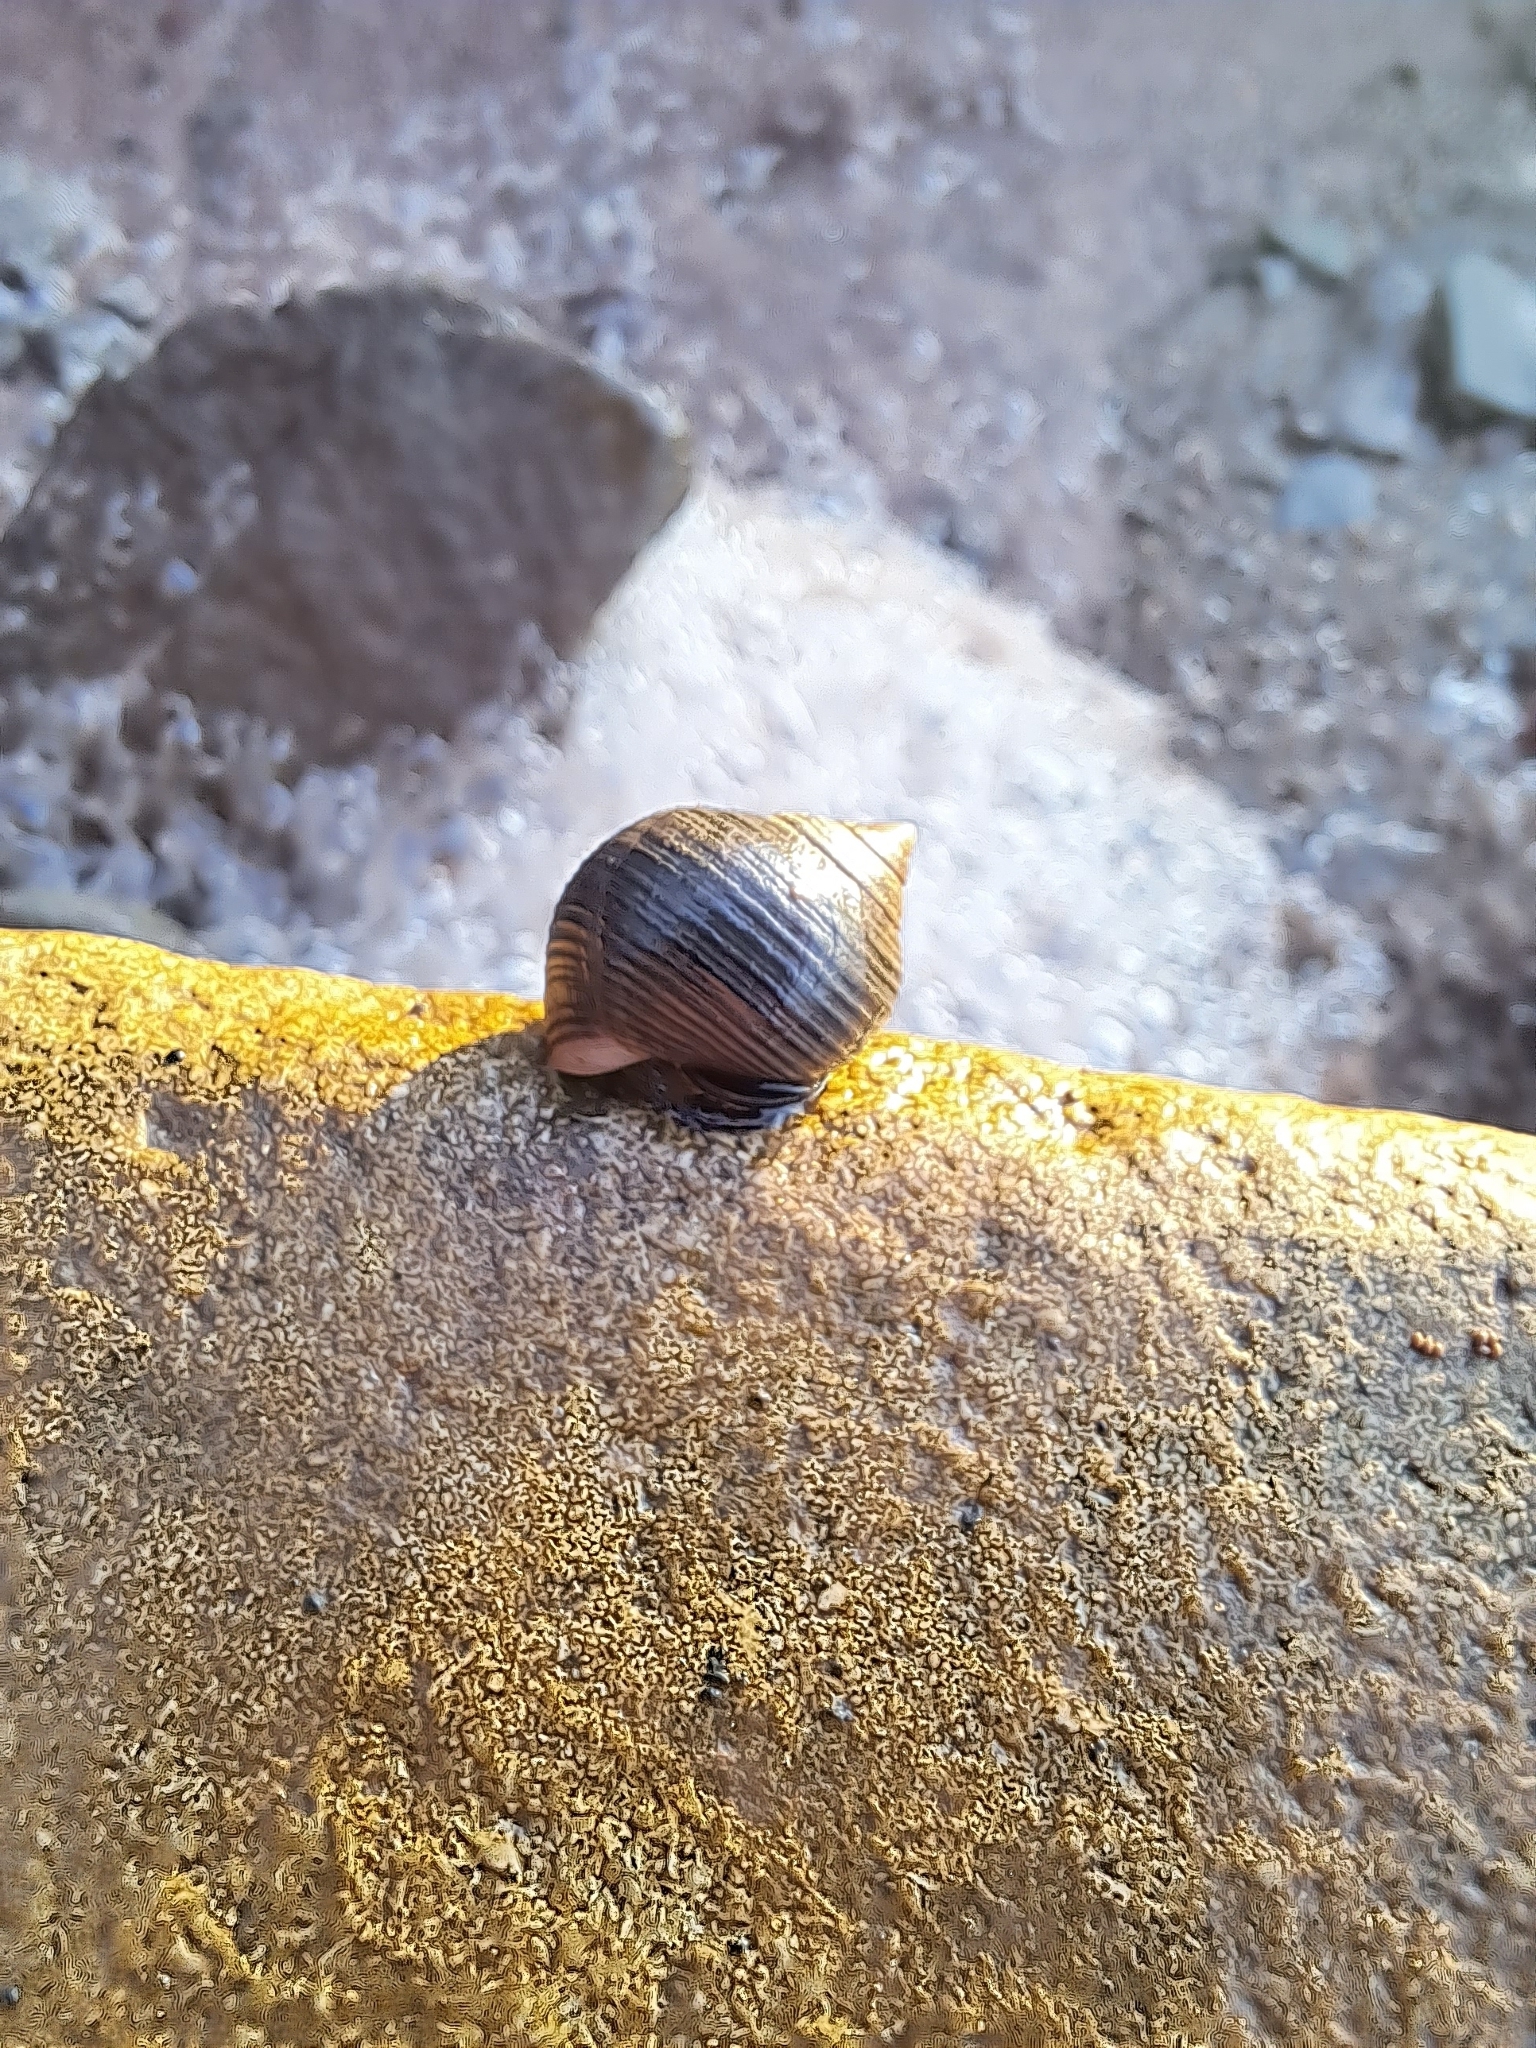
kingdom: Animalia
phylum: Mollusca
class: Gastropoda
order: Littorinimorpha
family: Littorinidae
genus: Littorina
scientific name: Littorina littorea
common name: Common periwinkle
